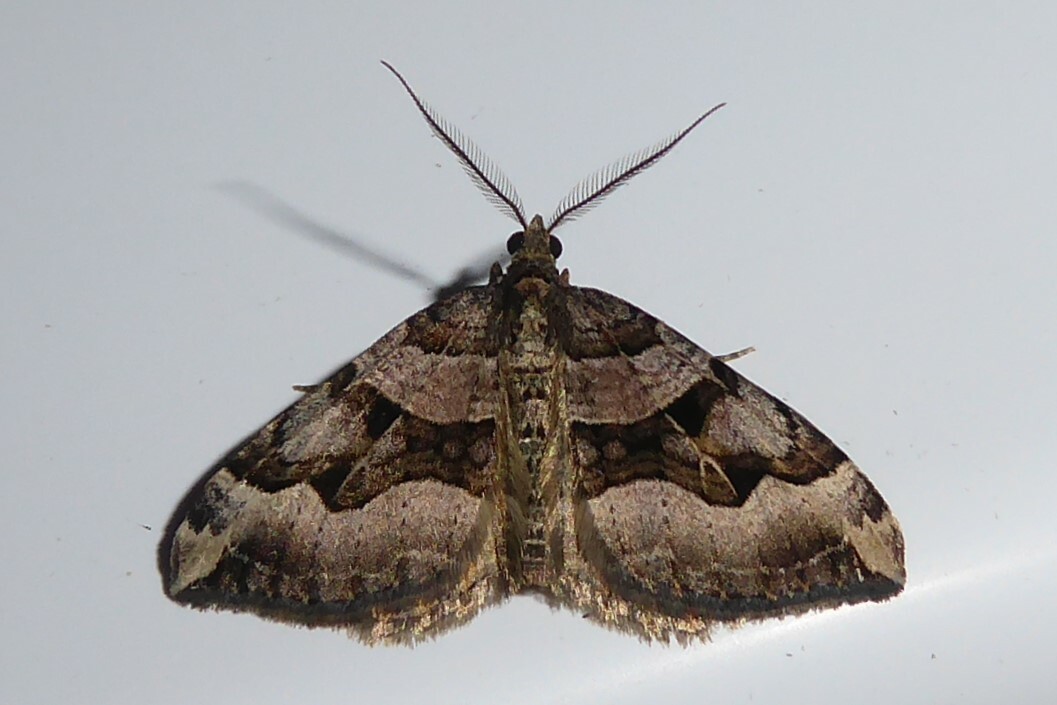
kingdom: Animalia
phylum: Arthropoda
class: Insecta
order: Lepidoptera
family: Geometridae
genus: Xanthorhoe
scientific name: Xanthorhoe semifissata
